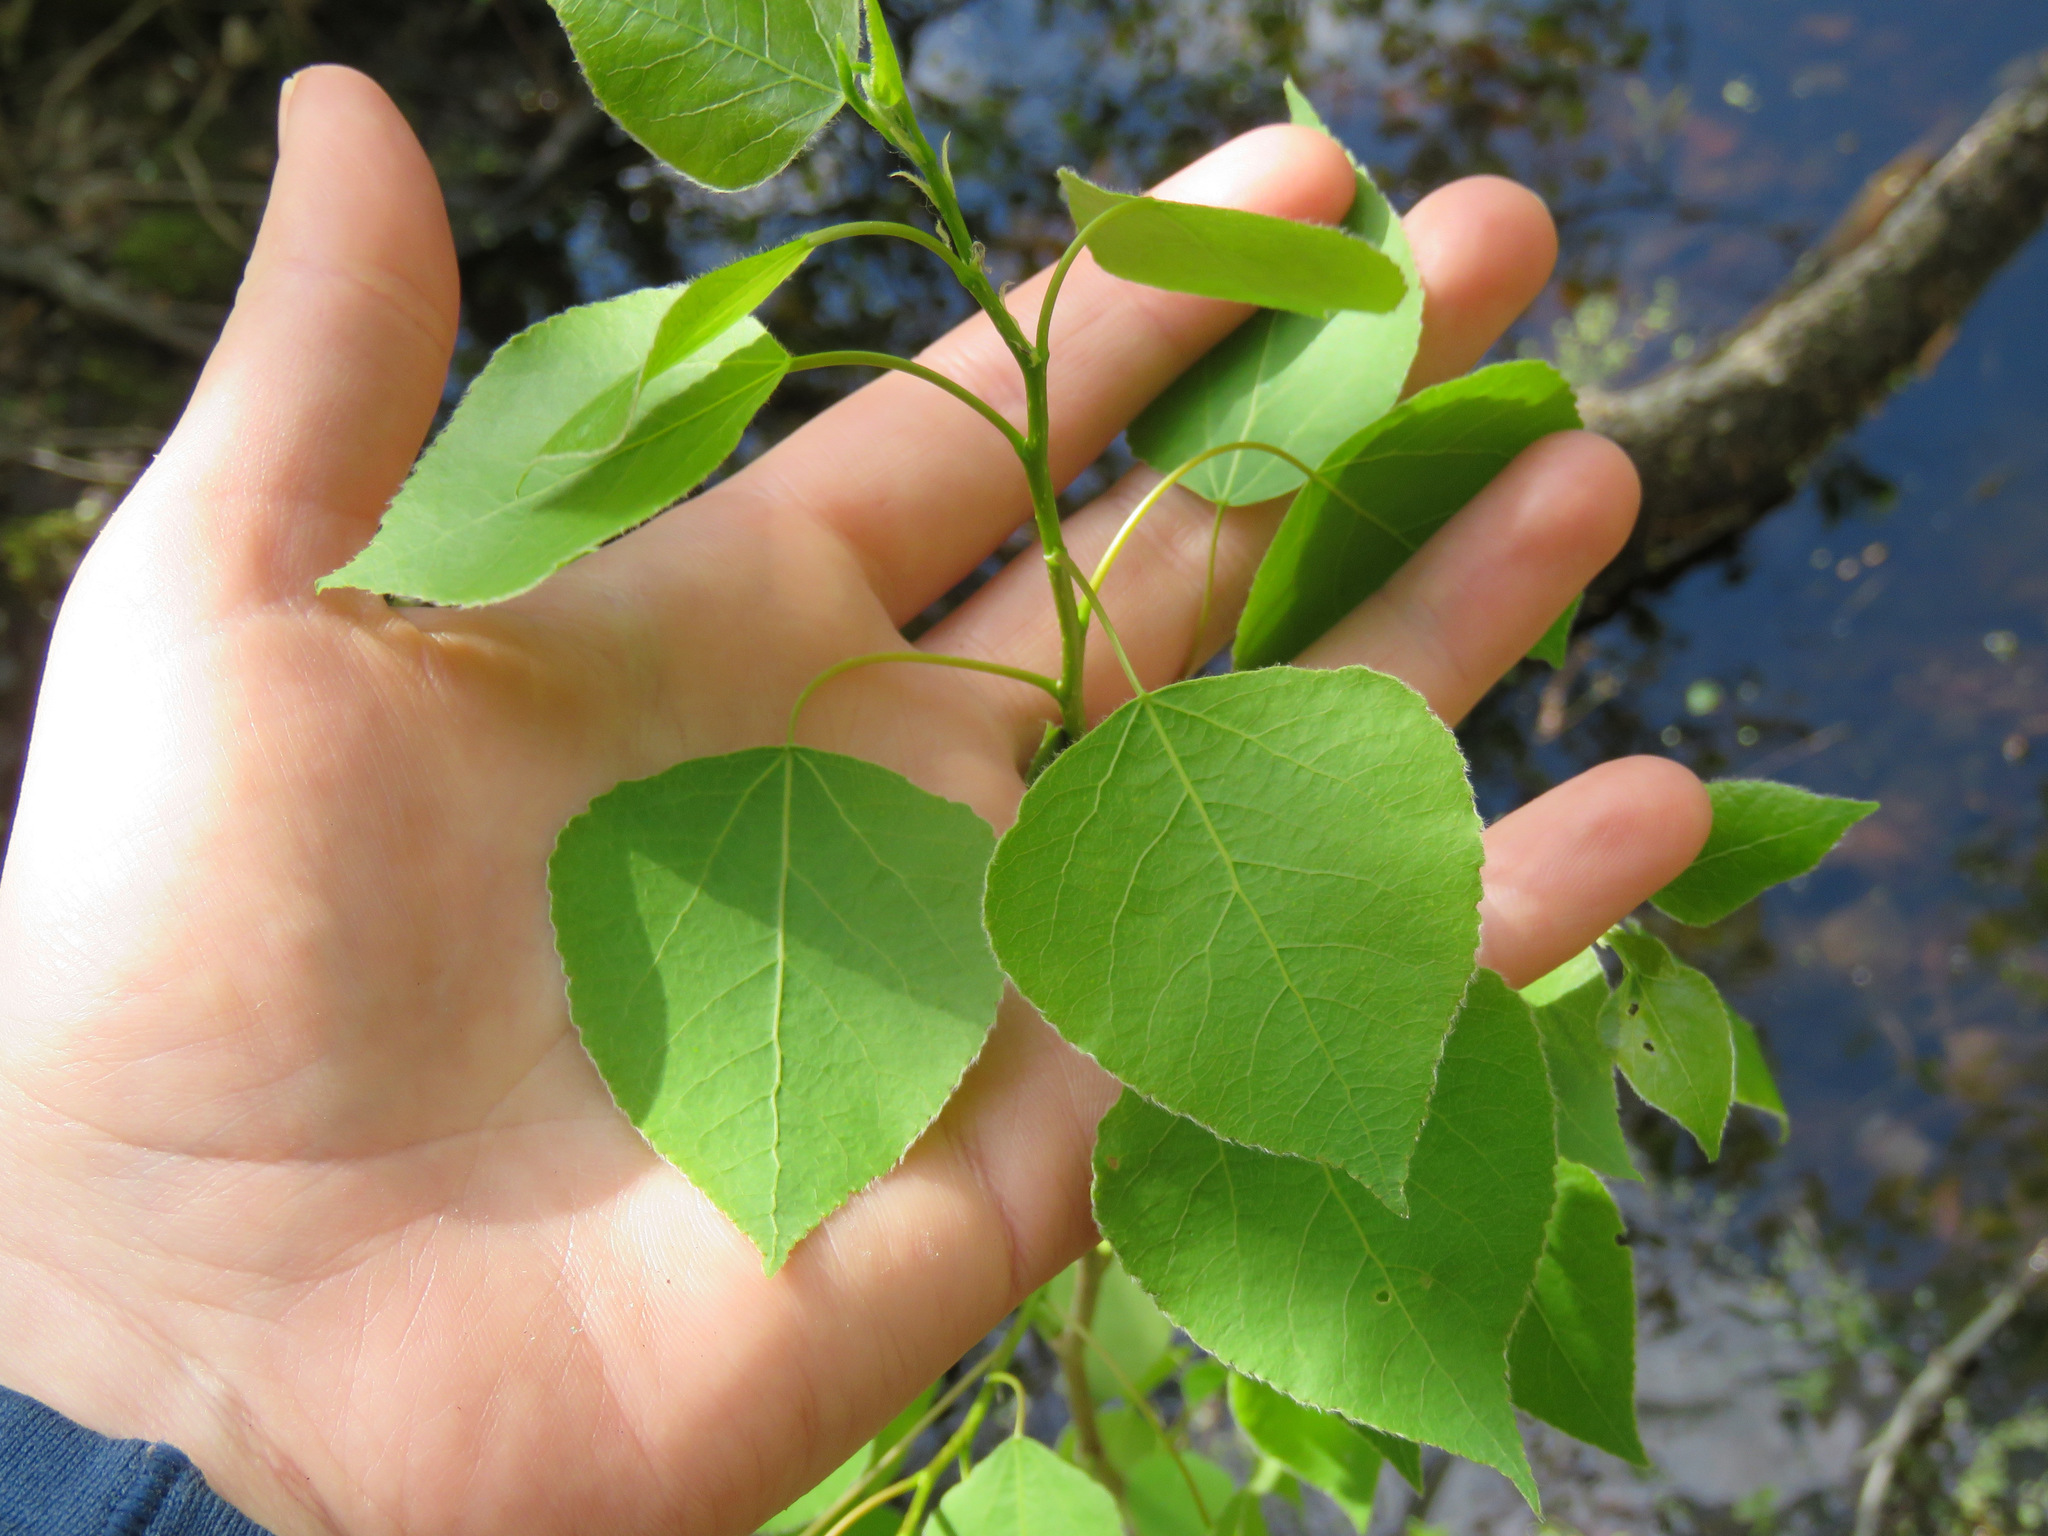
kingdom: Plantae
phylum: Tracheophyta
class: Magnoliopsida
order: Malpighiales
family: Salicaceae
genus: Populus
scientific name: Populus tremuloides
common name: Quaking aspen
